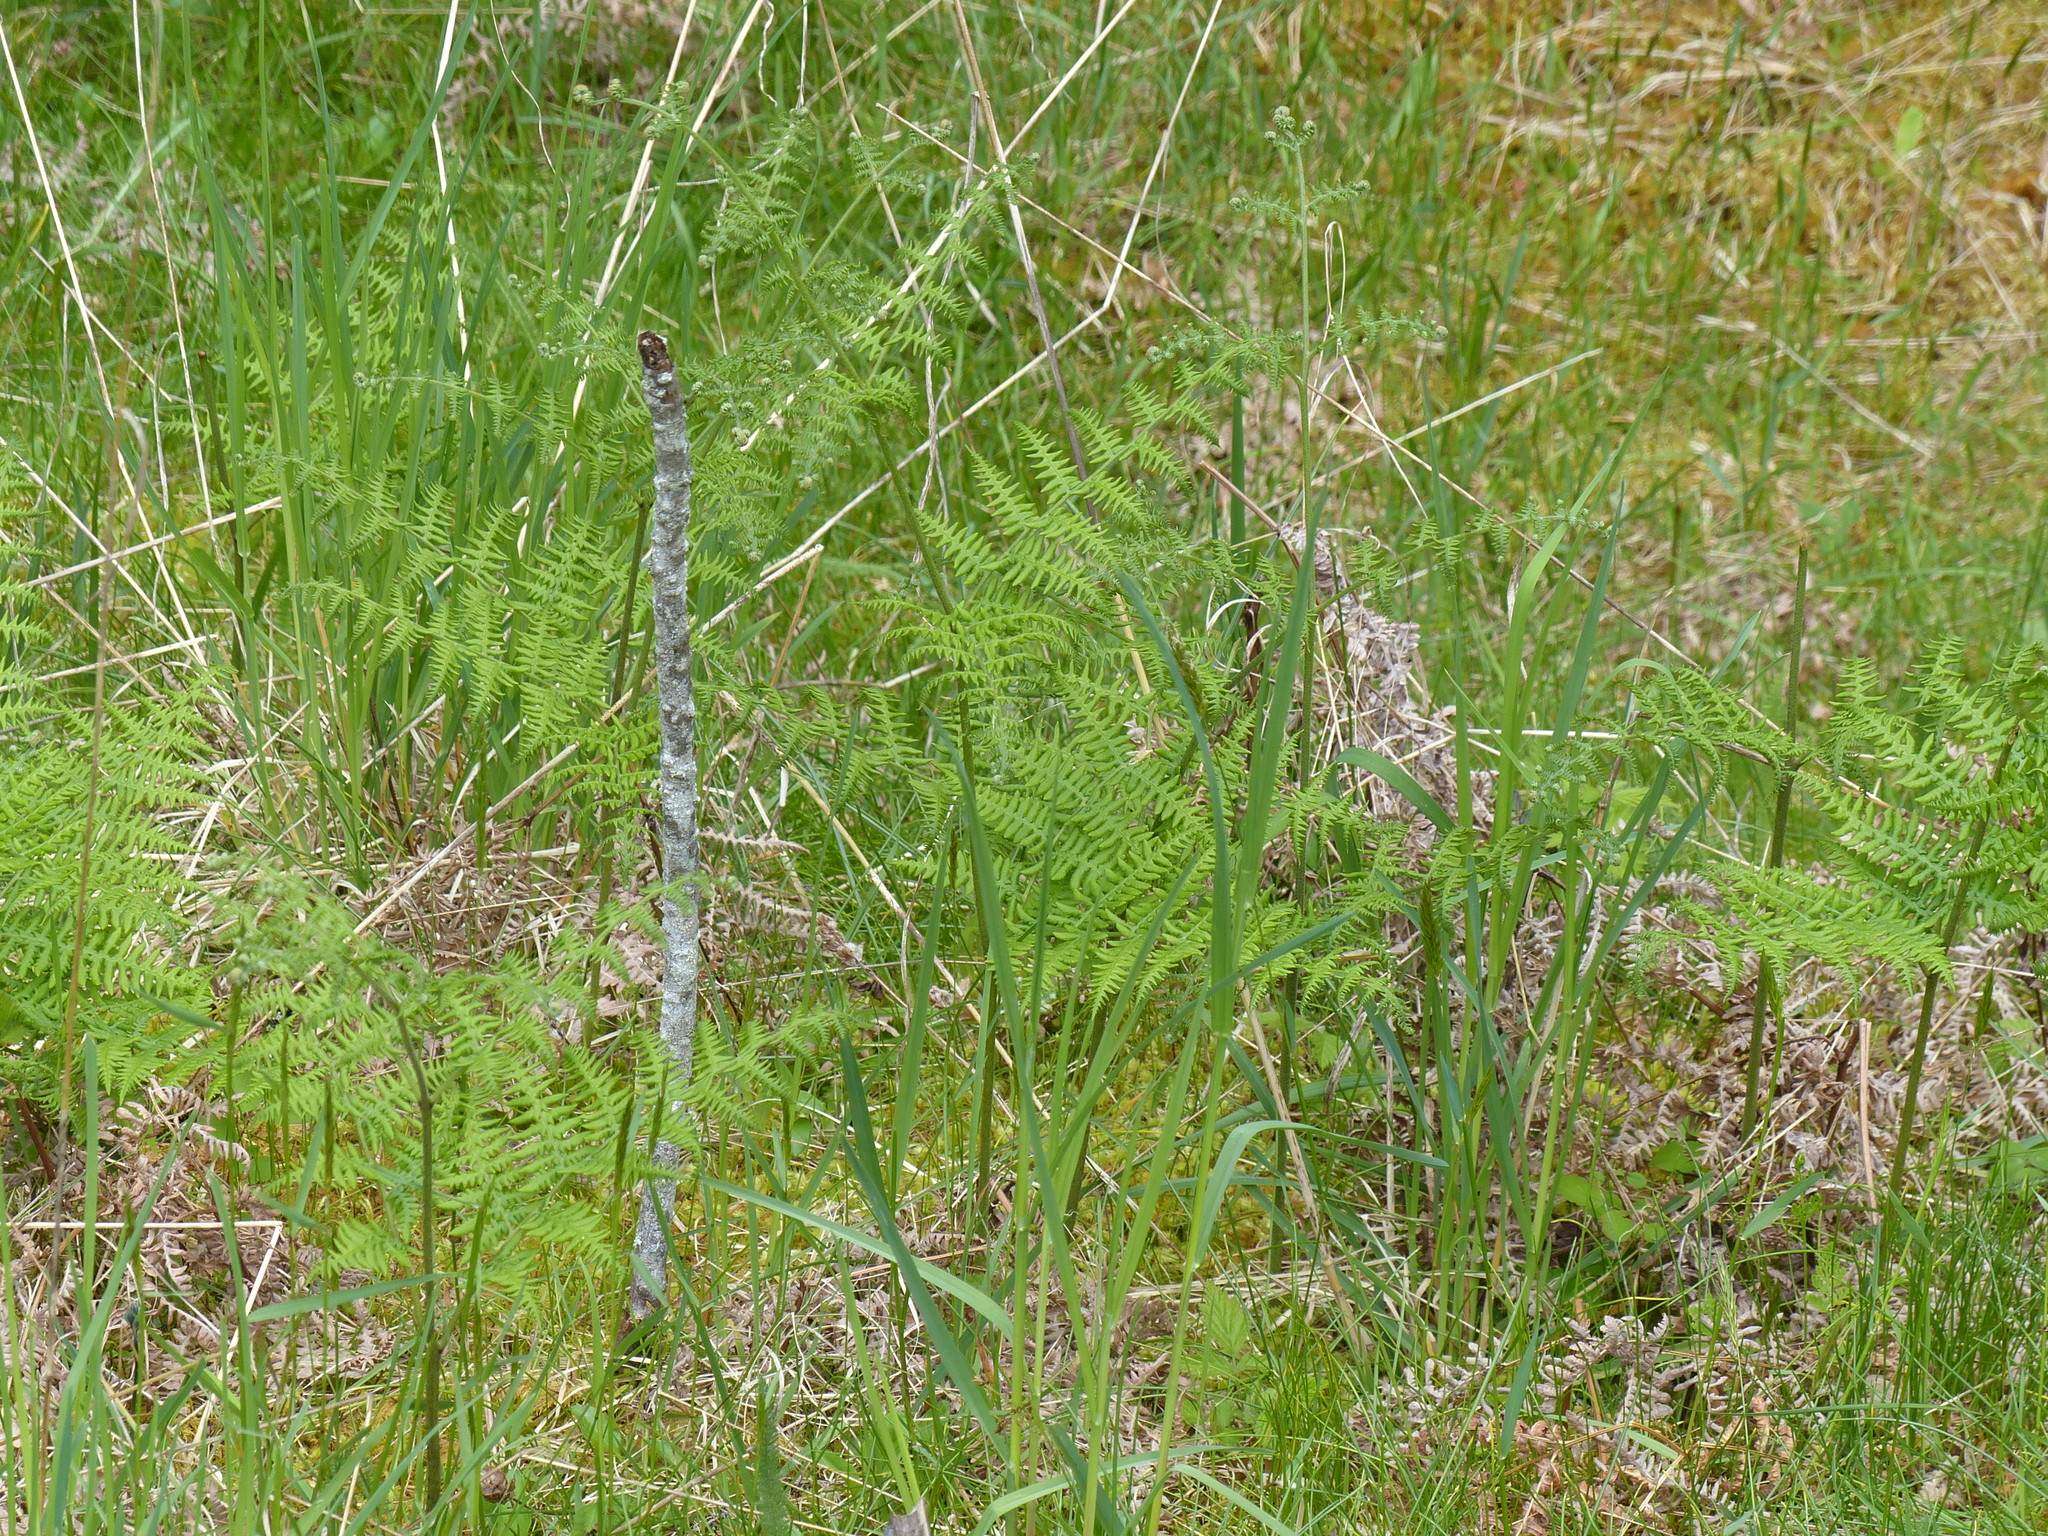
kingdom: Plantae
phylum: Tracheophyta
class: Polypodiopsida
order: Polypodiales
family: Dennstaedtiaceae
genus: Pteridium
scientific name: Pteridium aquilinum
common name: Bracken
